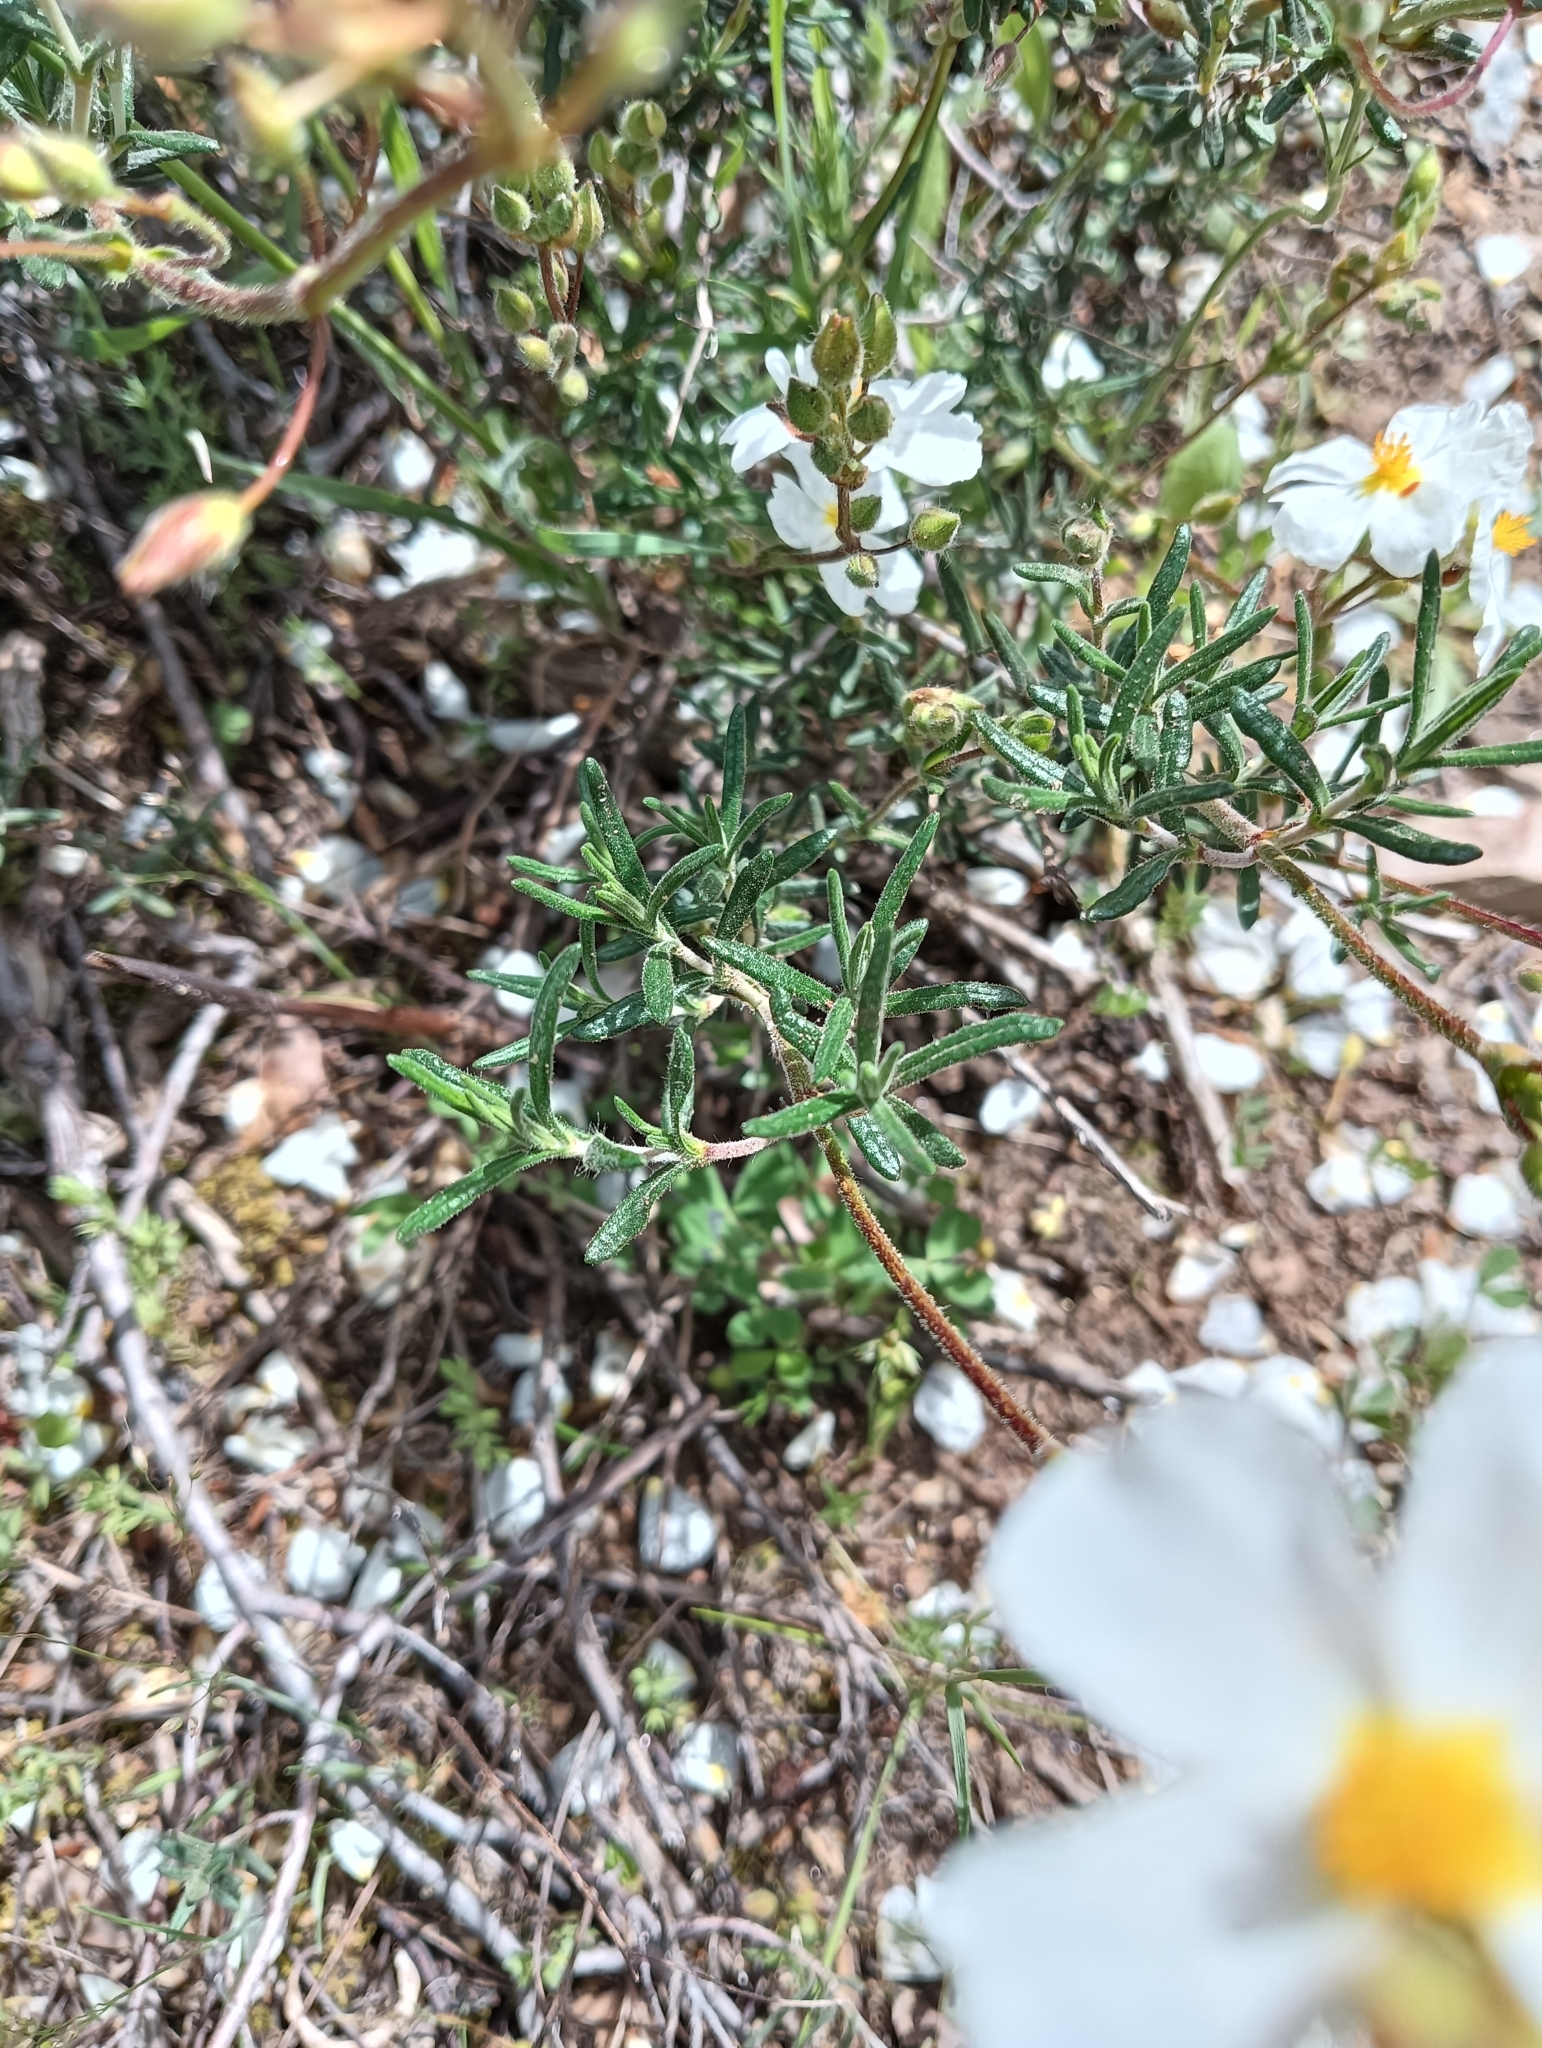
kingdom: Plantae
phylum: Tracheophyta
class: Magnoliopsida
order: Malvales
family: Cistaceae
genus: Halimium
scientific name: Halimium umbellatum
